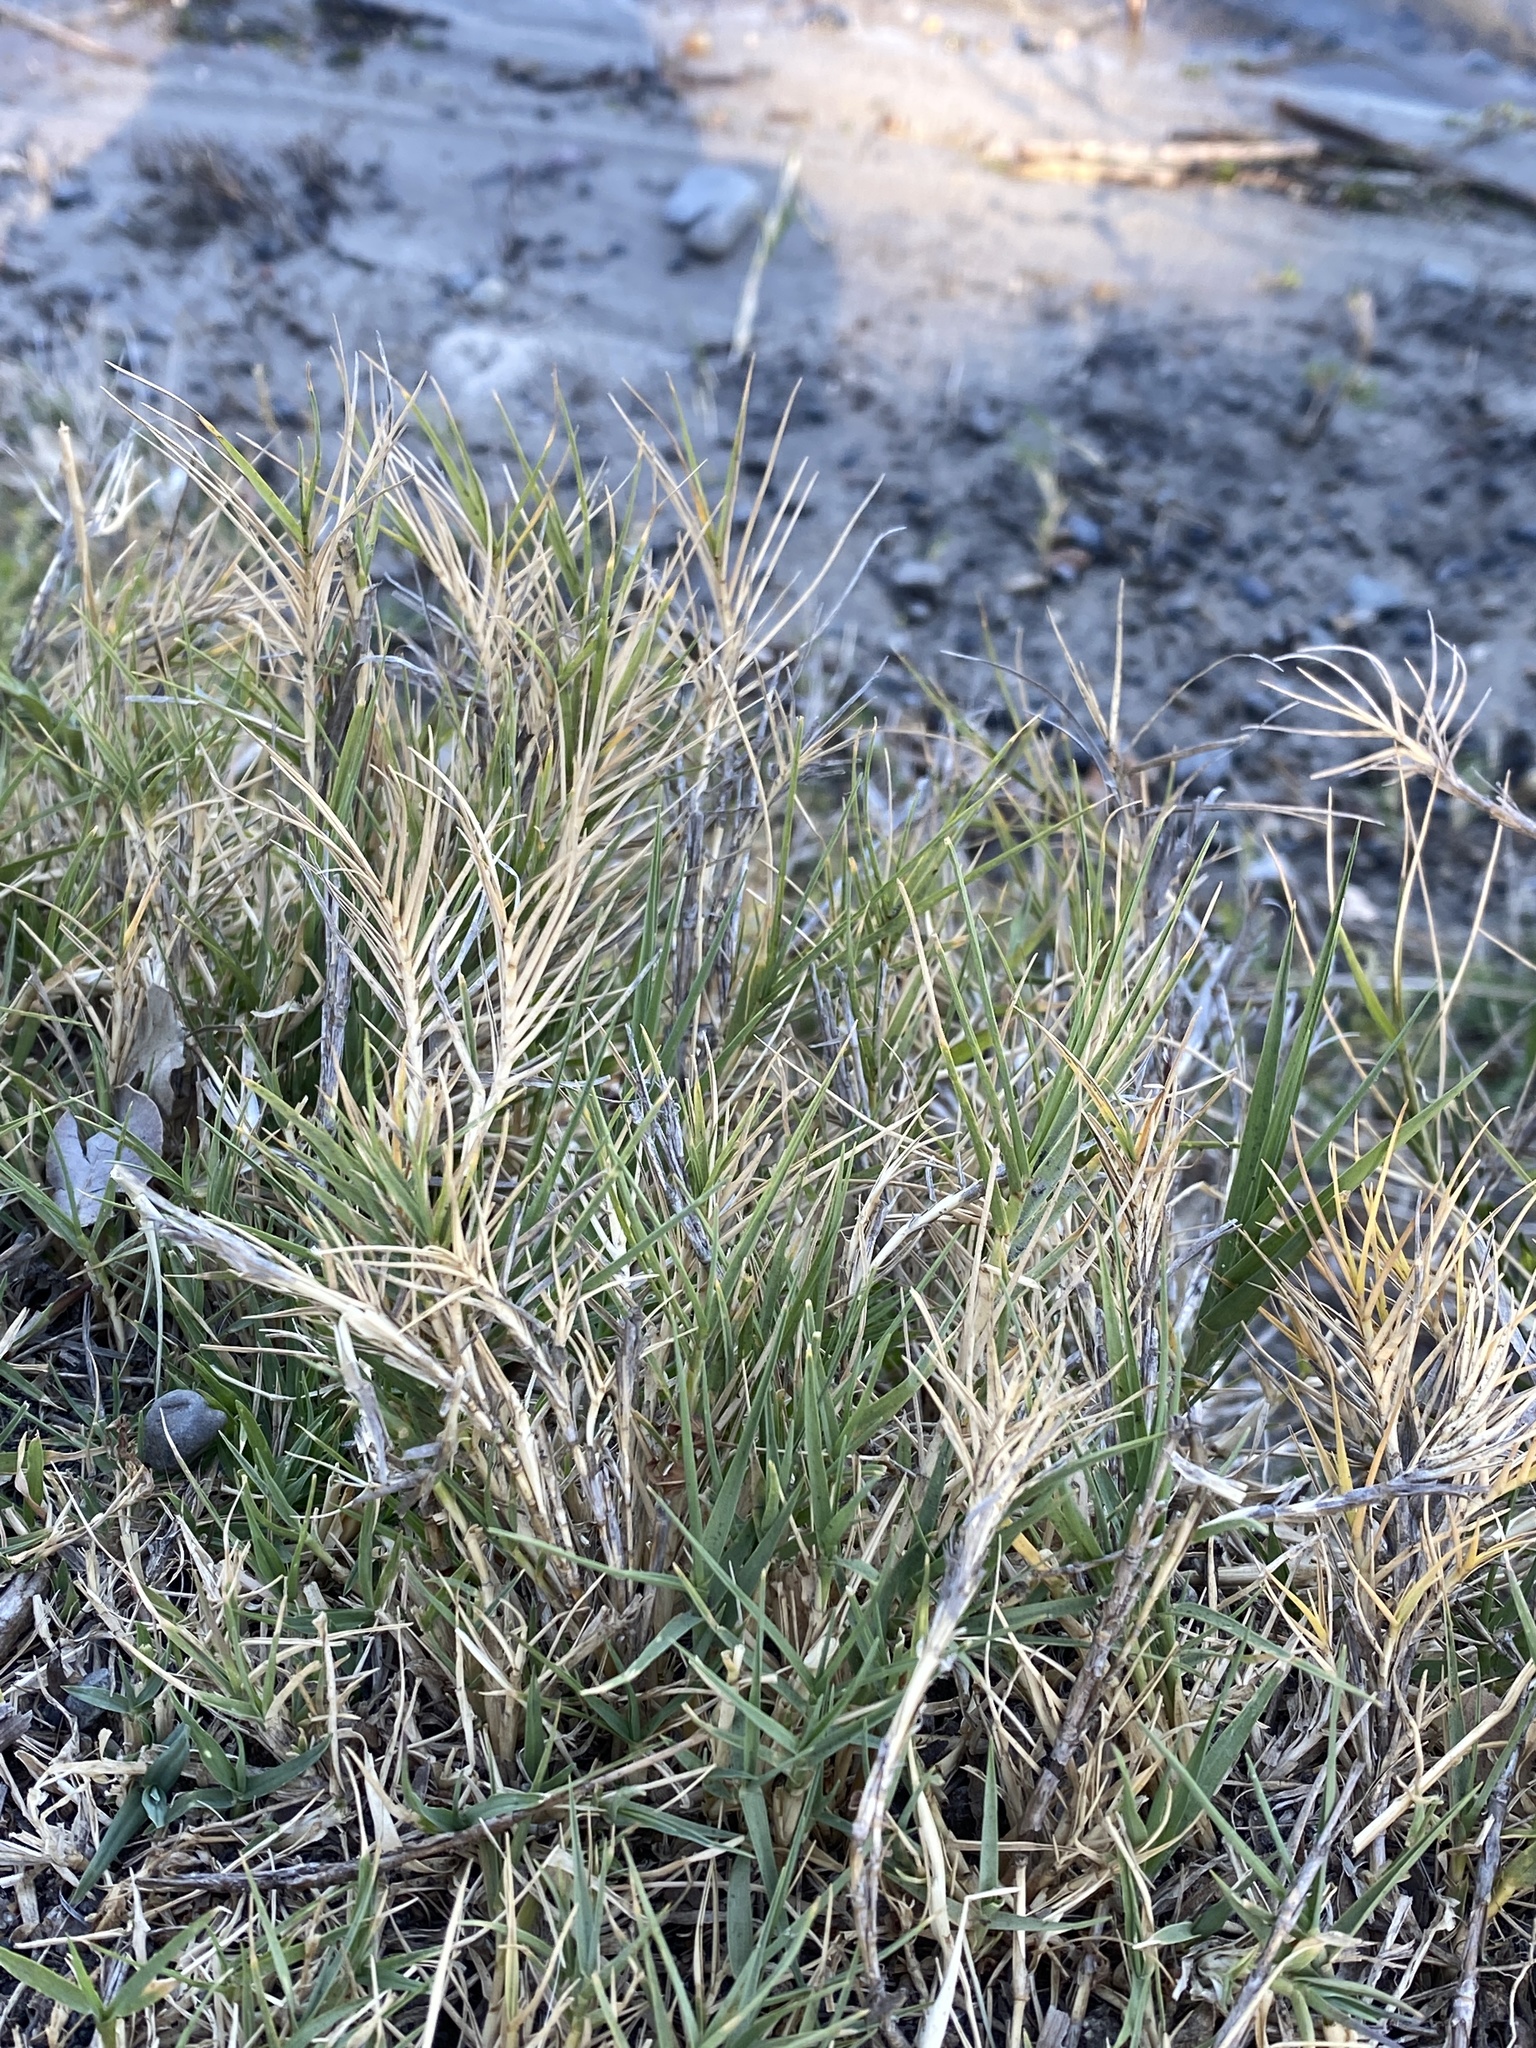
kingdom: Plantae
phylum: Tracheophyta
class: Liliopsida
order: Poales
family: Poaceae
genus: Distichlis
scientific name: Distichlis spicata
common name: Saltgrass
